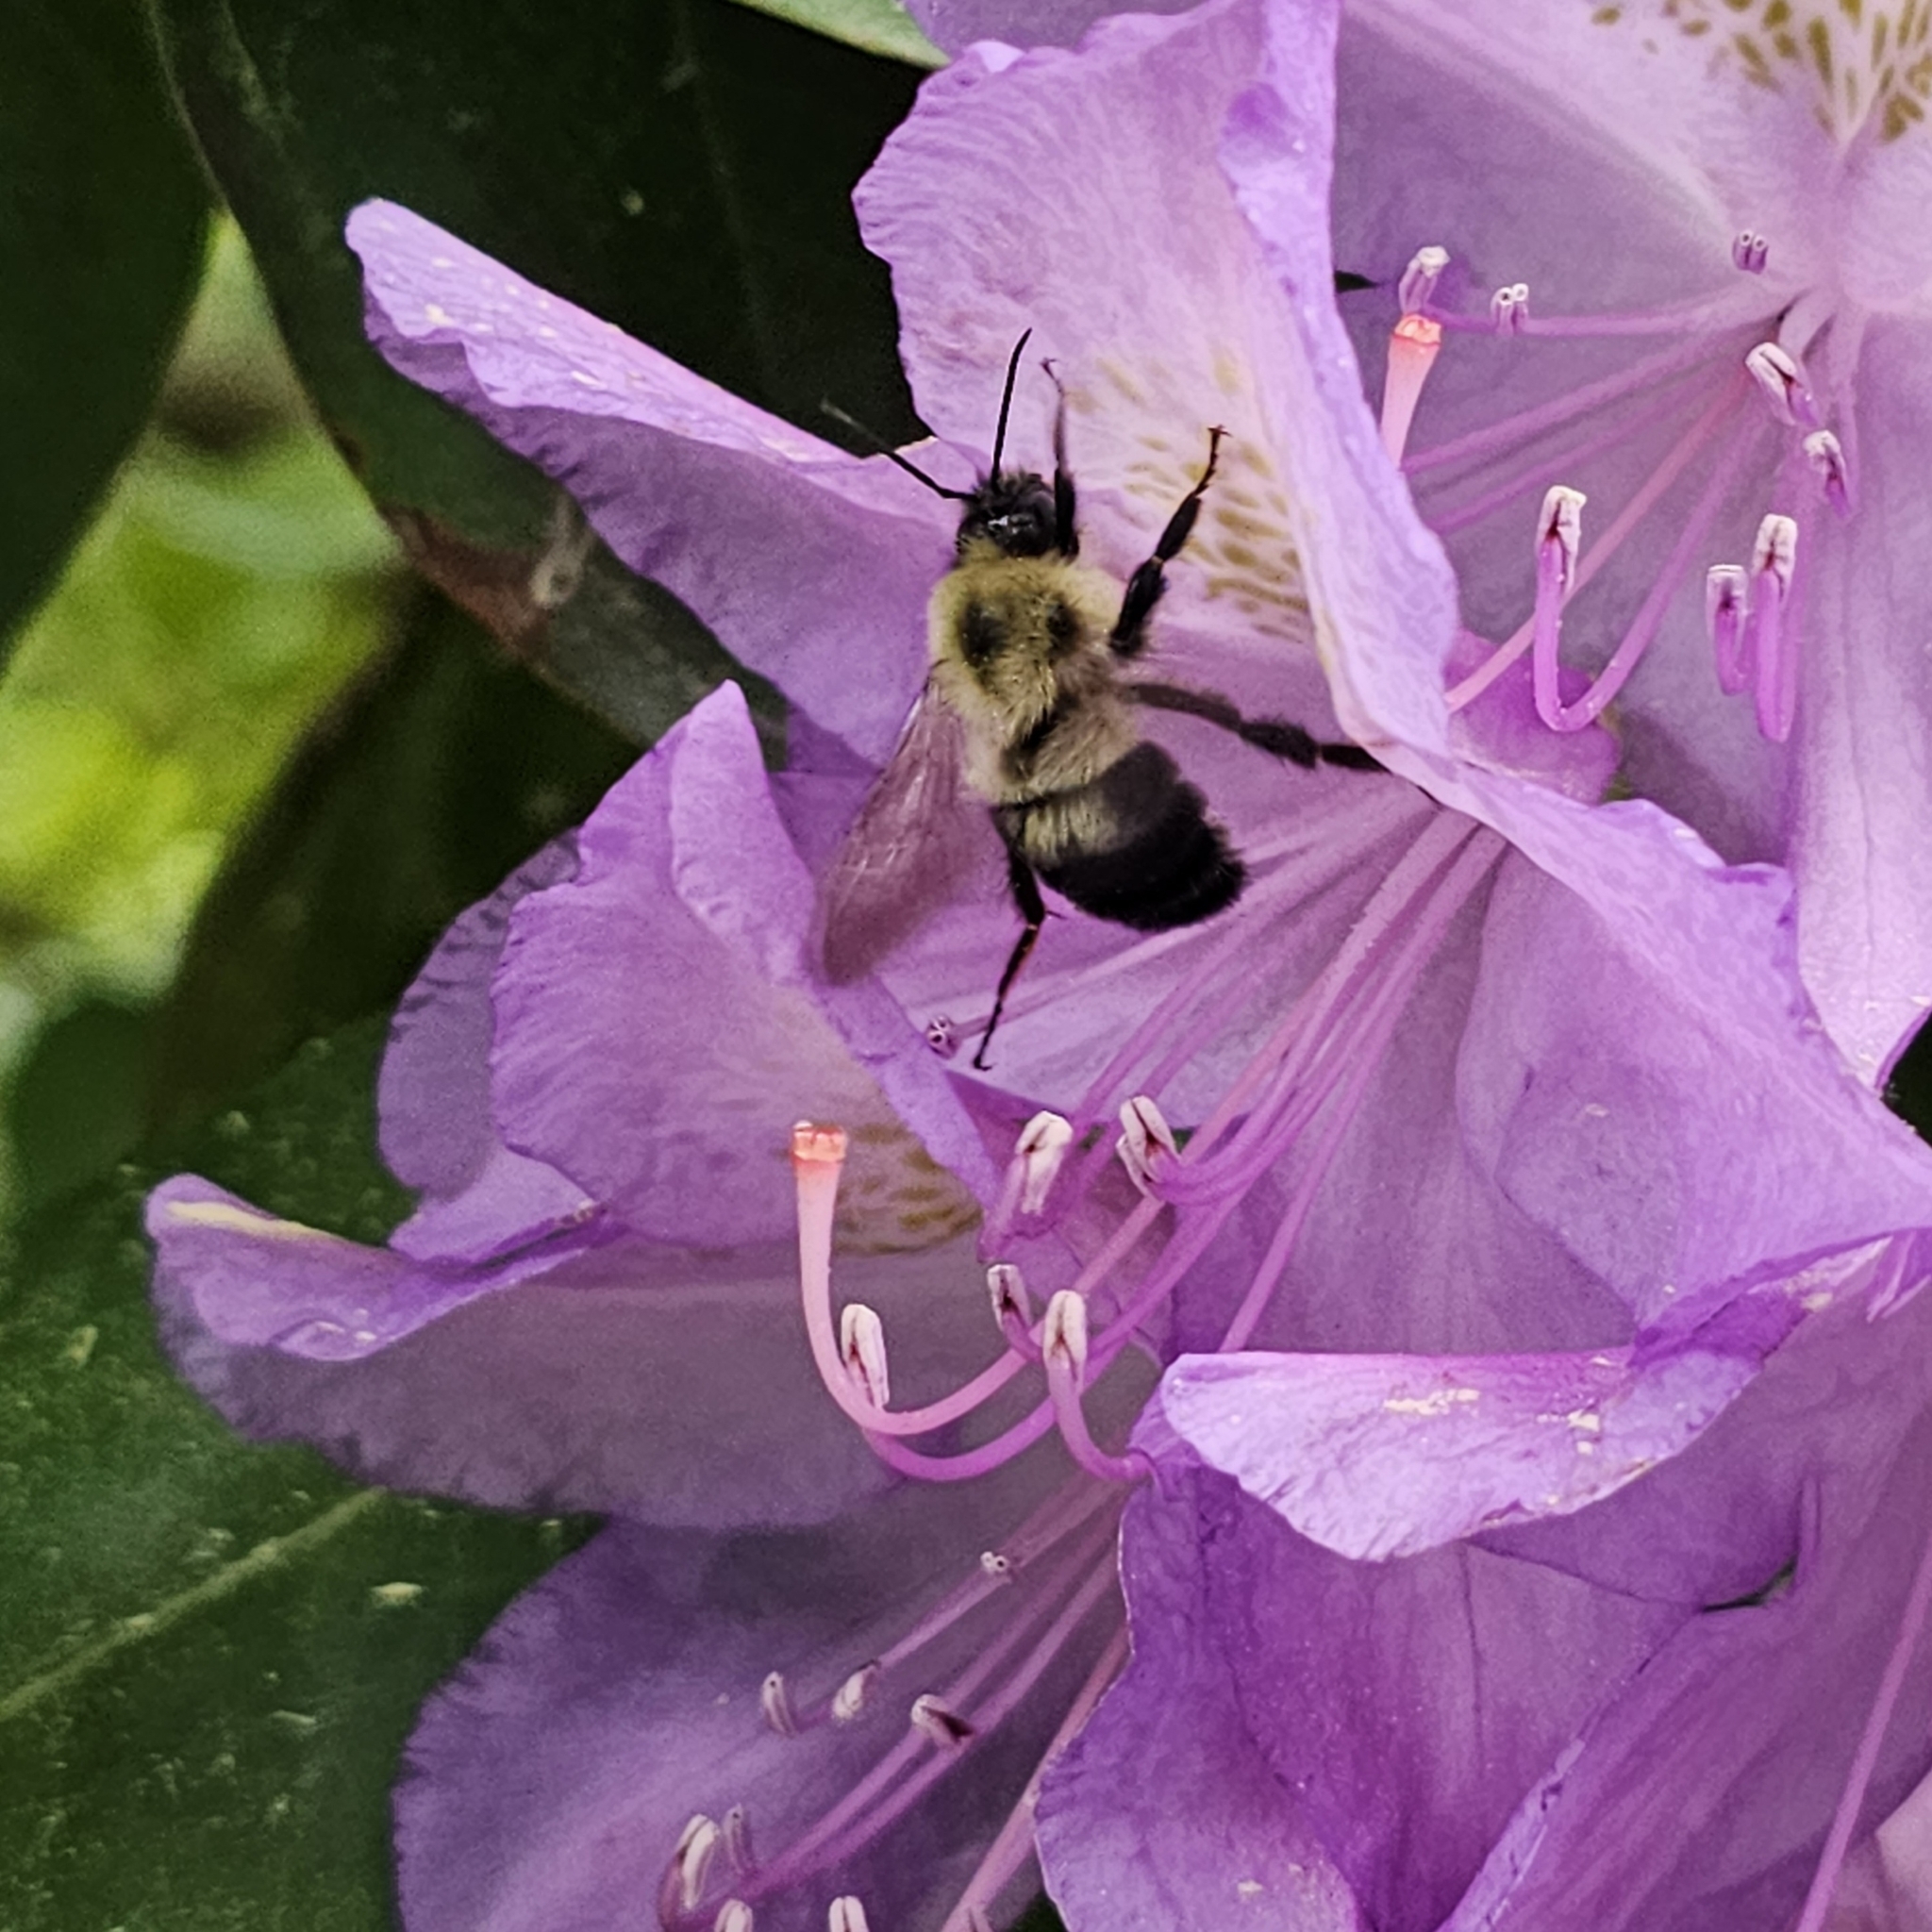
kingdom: Animalia
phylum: Arthropoda
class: Insecta
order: Hymenoptera
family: Apidae
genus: Bombus
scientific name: Bombus bimaculatus
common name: Two-spotted bumble bee
